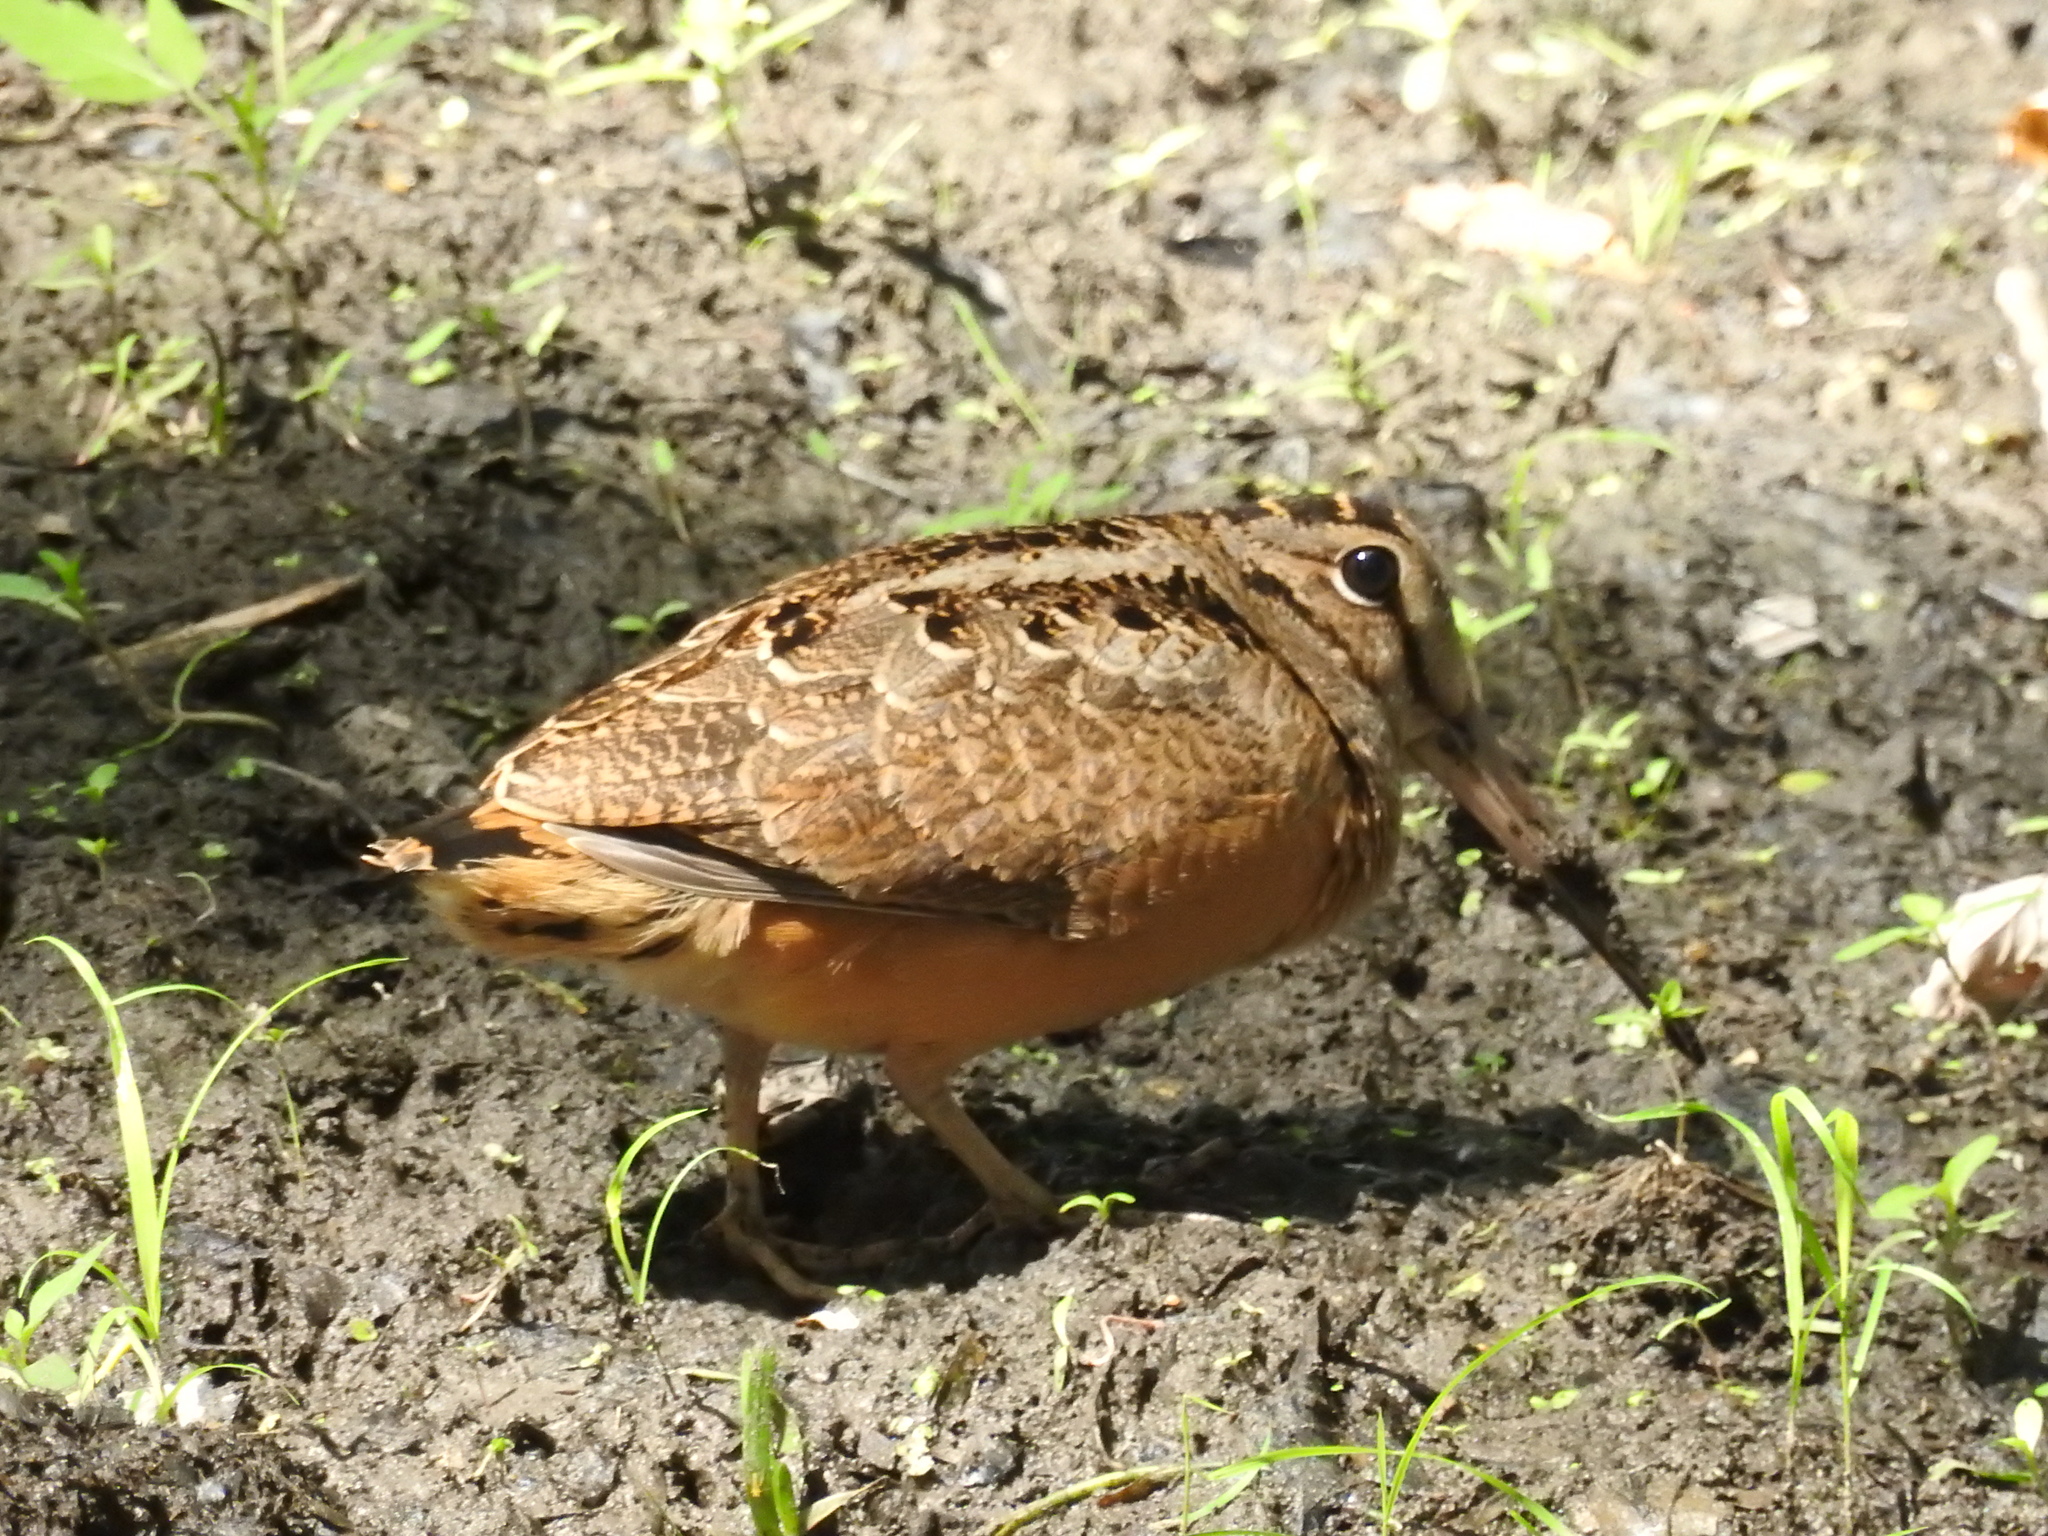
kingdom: Animalia
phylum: Chordata
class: Aves
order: Charadriiformes
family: Scolopacidae
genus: Scolopax
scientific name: Scolopax minor
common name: American woodcock
